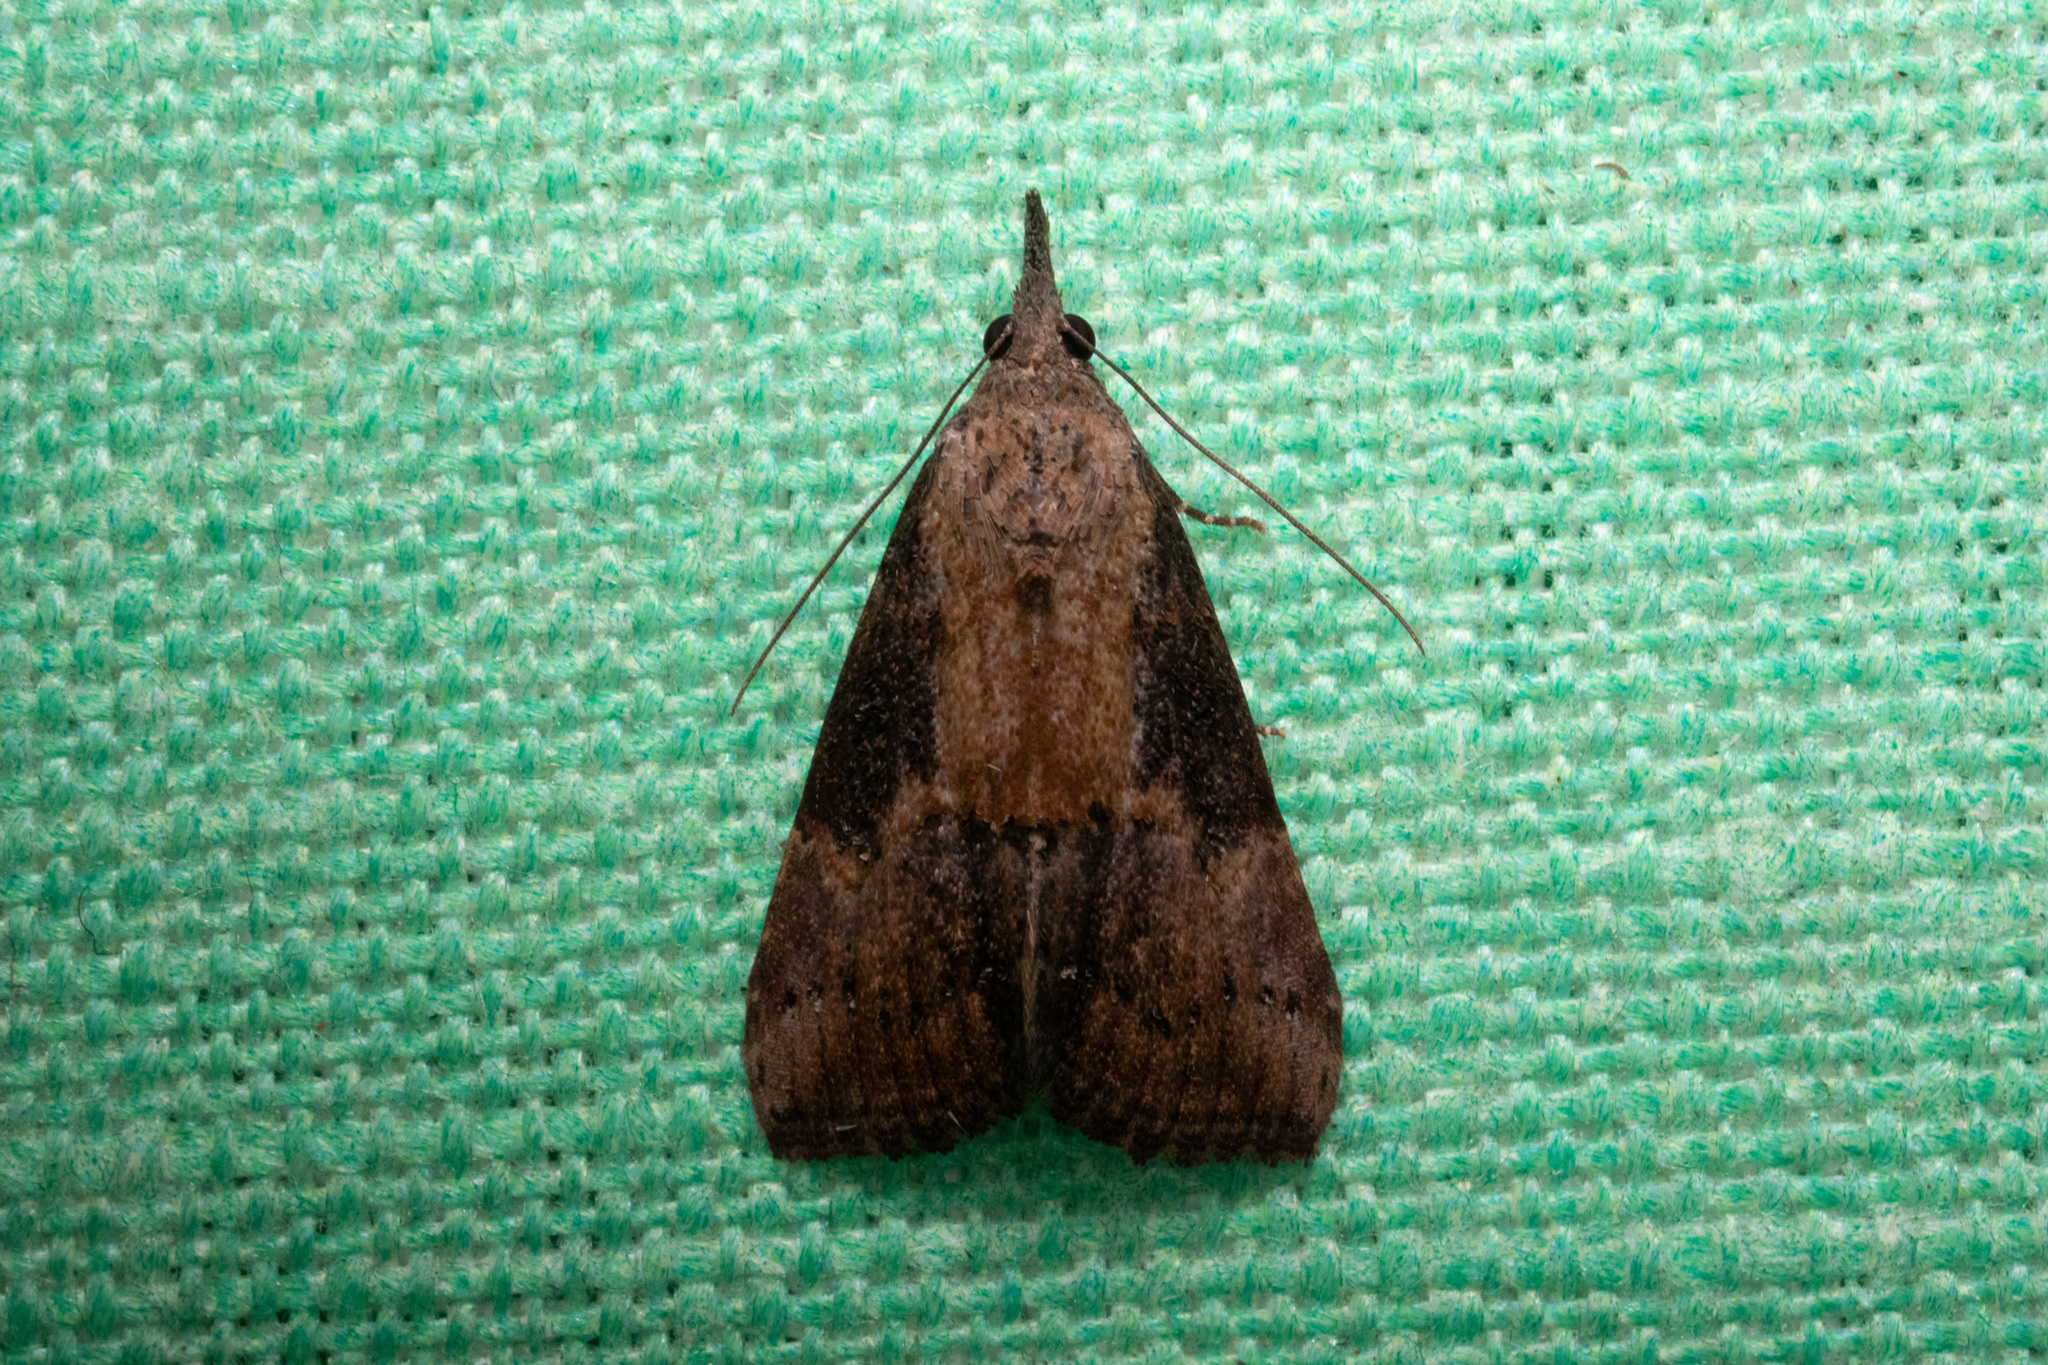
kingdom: Animalia
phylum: Arthropoda
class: Insecta
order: Lepidoptera
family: Erebidae
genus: Hypena
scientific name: Hypena scabra
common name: Green cloverworm
